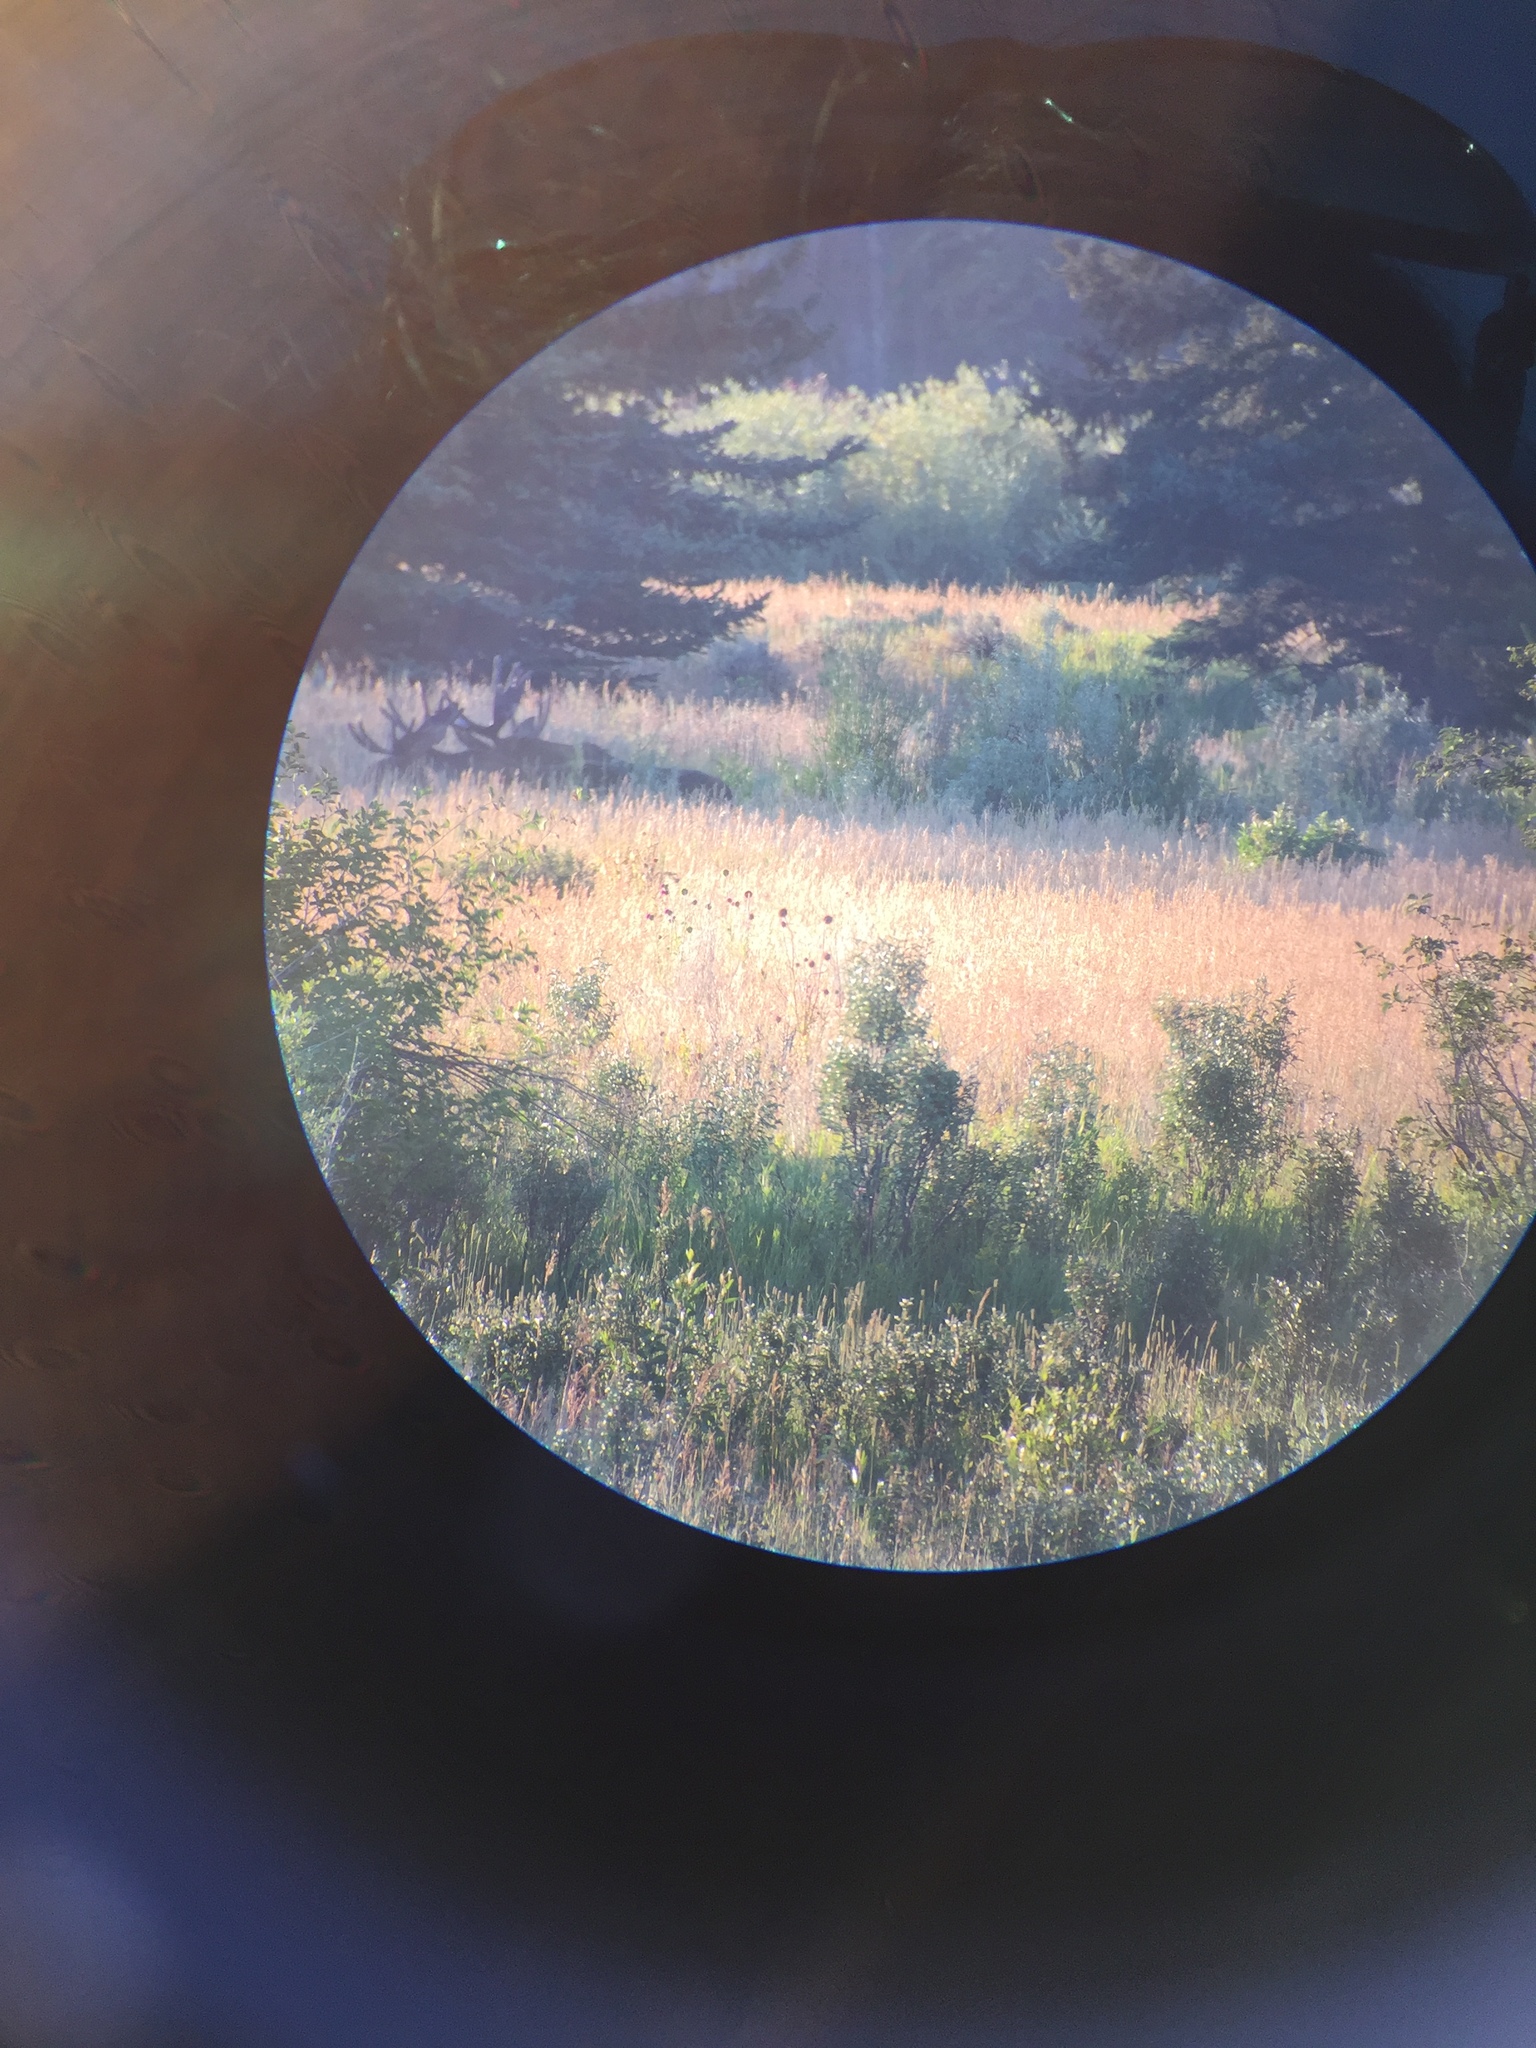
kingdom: Animalia
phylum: Chordata
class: Mammalia
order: Artiodactyla
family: Cervidae
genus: Alces
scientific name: Alces alces
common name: Moose
